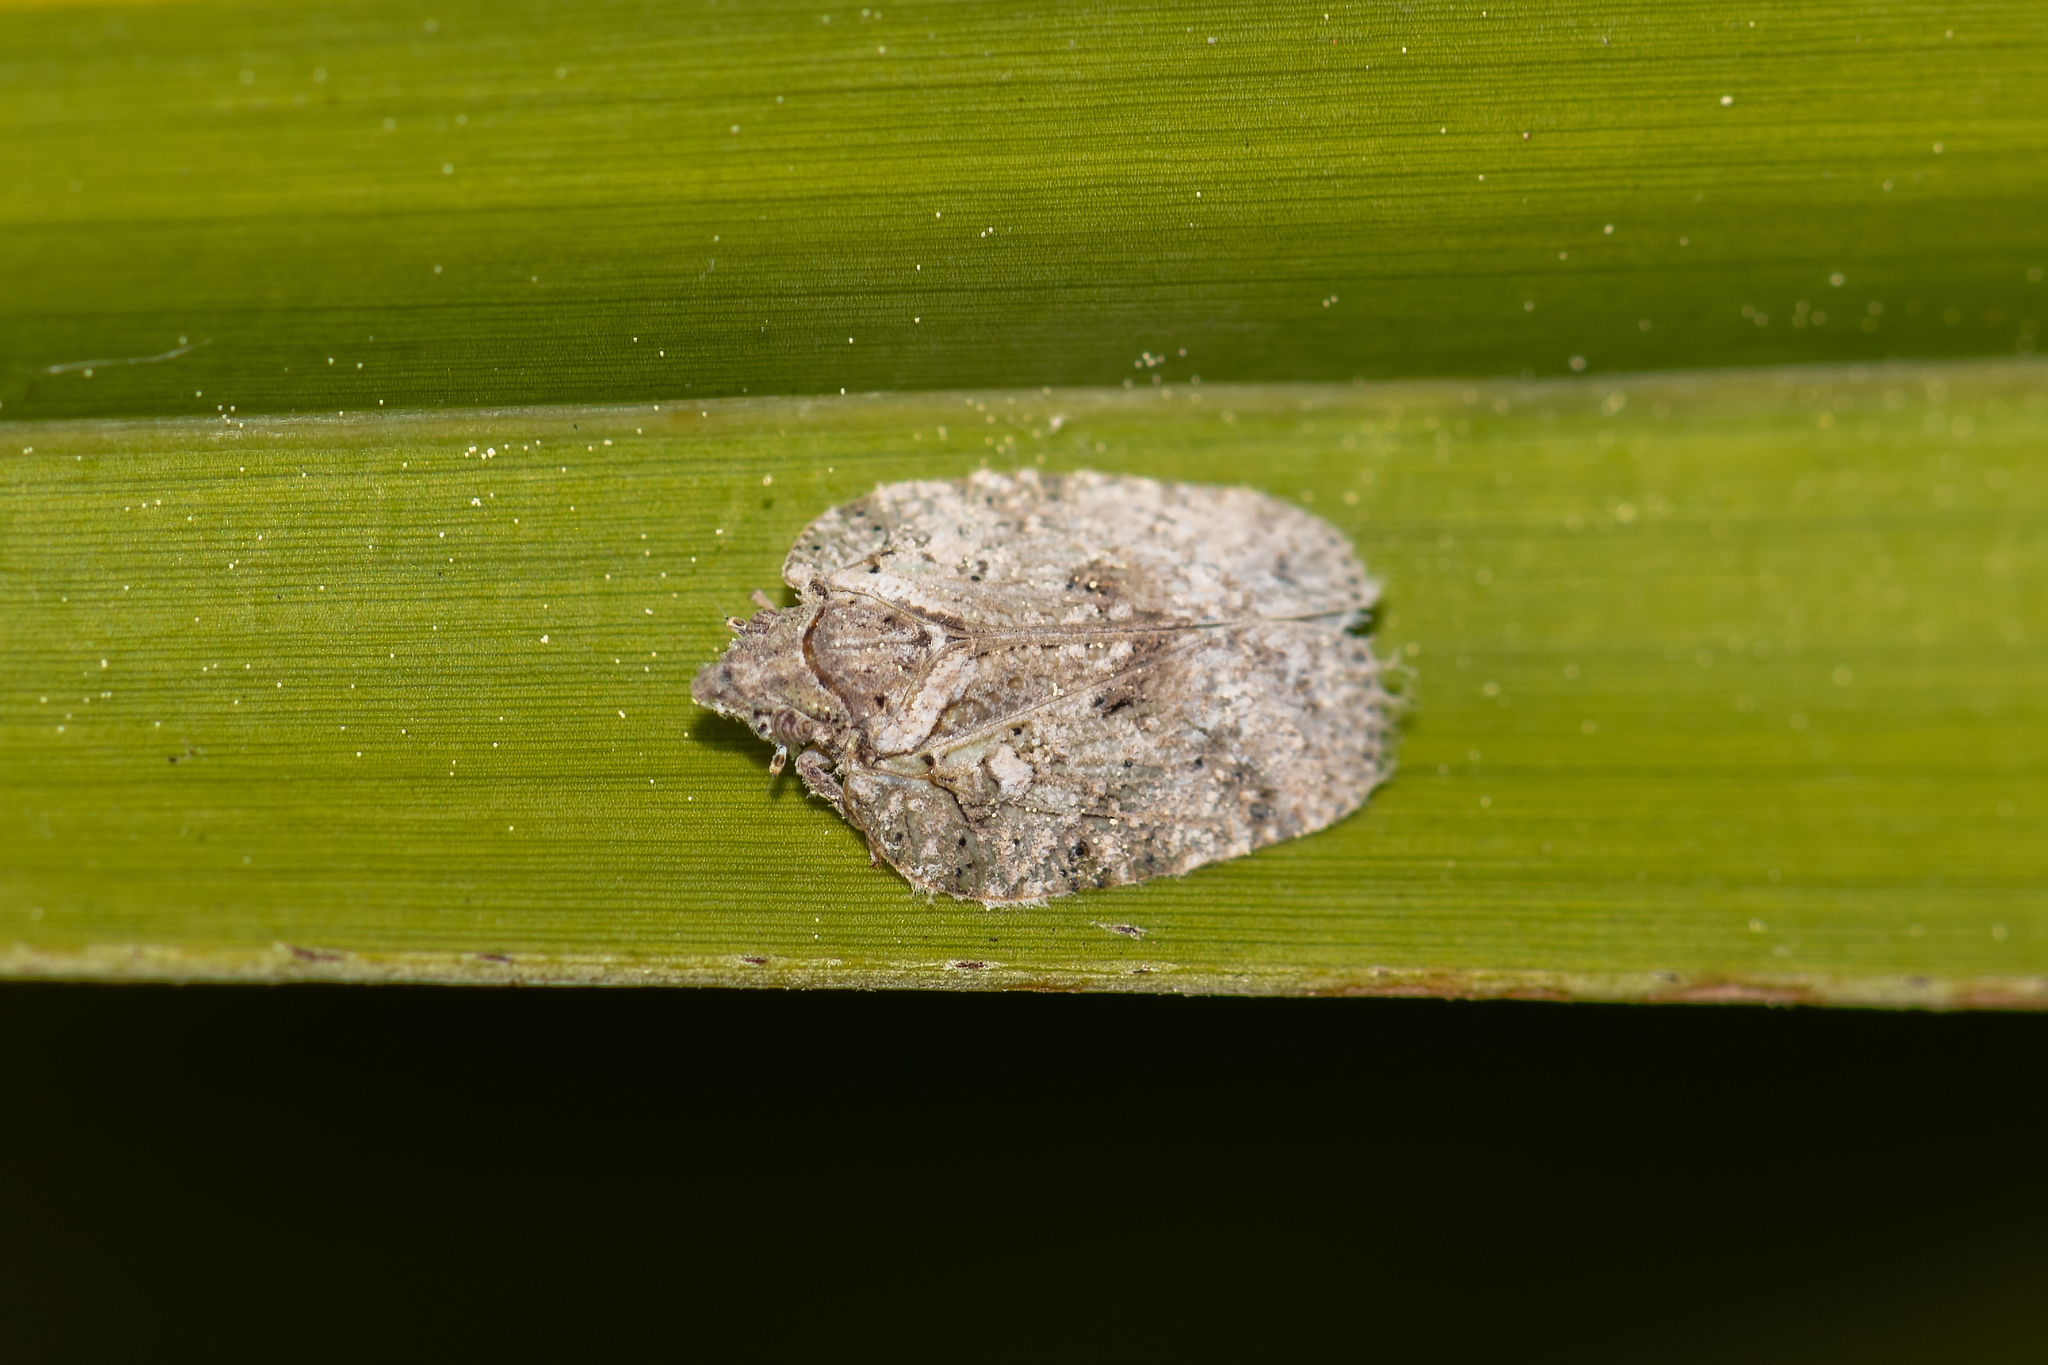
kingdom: Animalia
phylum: Arthropoda
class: Insecta
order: Hemiptera
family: Flatidae
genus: Flatoidinus
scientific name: Flatoidinus punctatus
